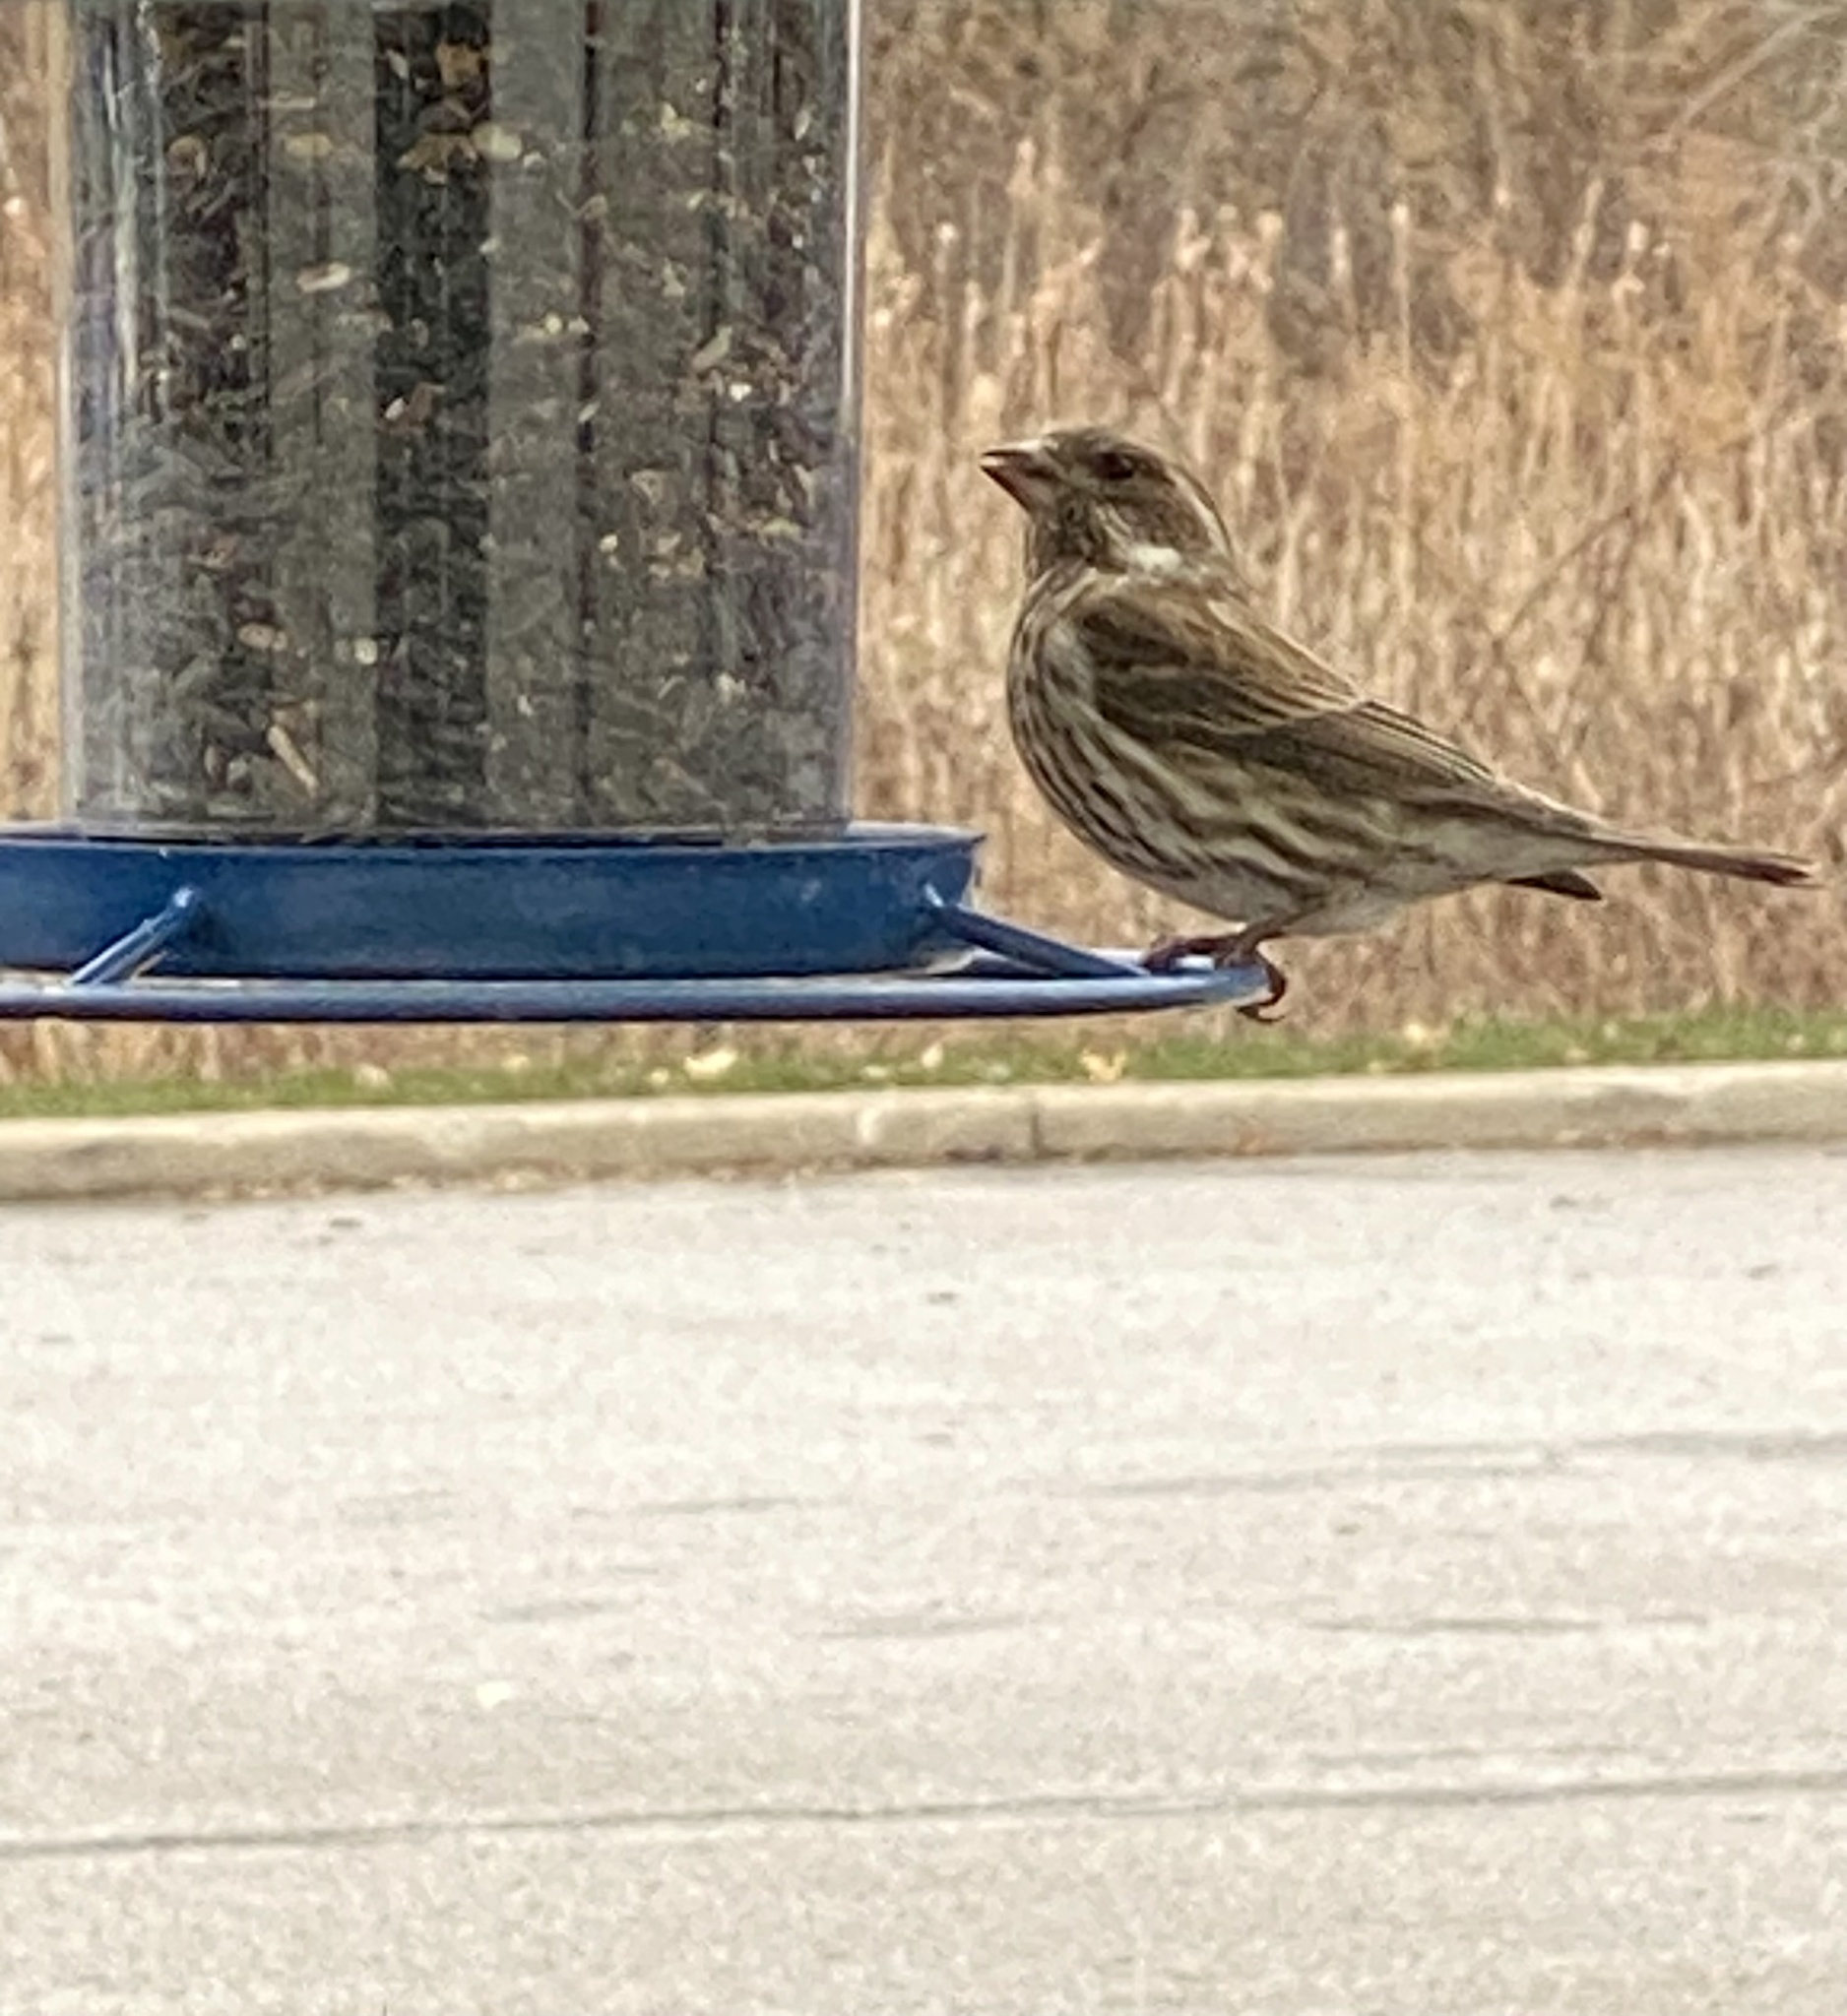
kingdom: Animalia
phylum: Chordata
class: Aves
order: Passeriformes
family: Fringillidae
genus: Haemorhous
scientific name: Haemorhous purpureus
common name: Purple finch
